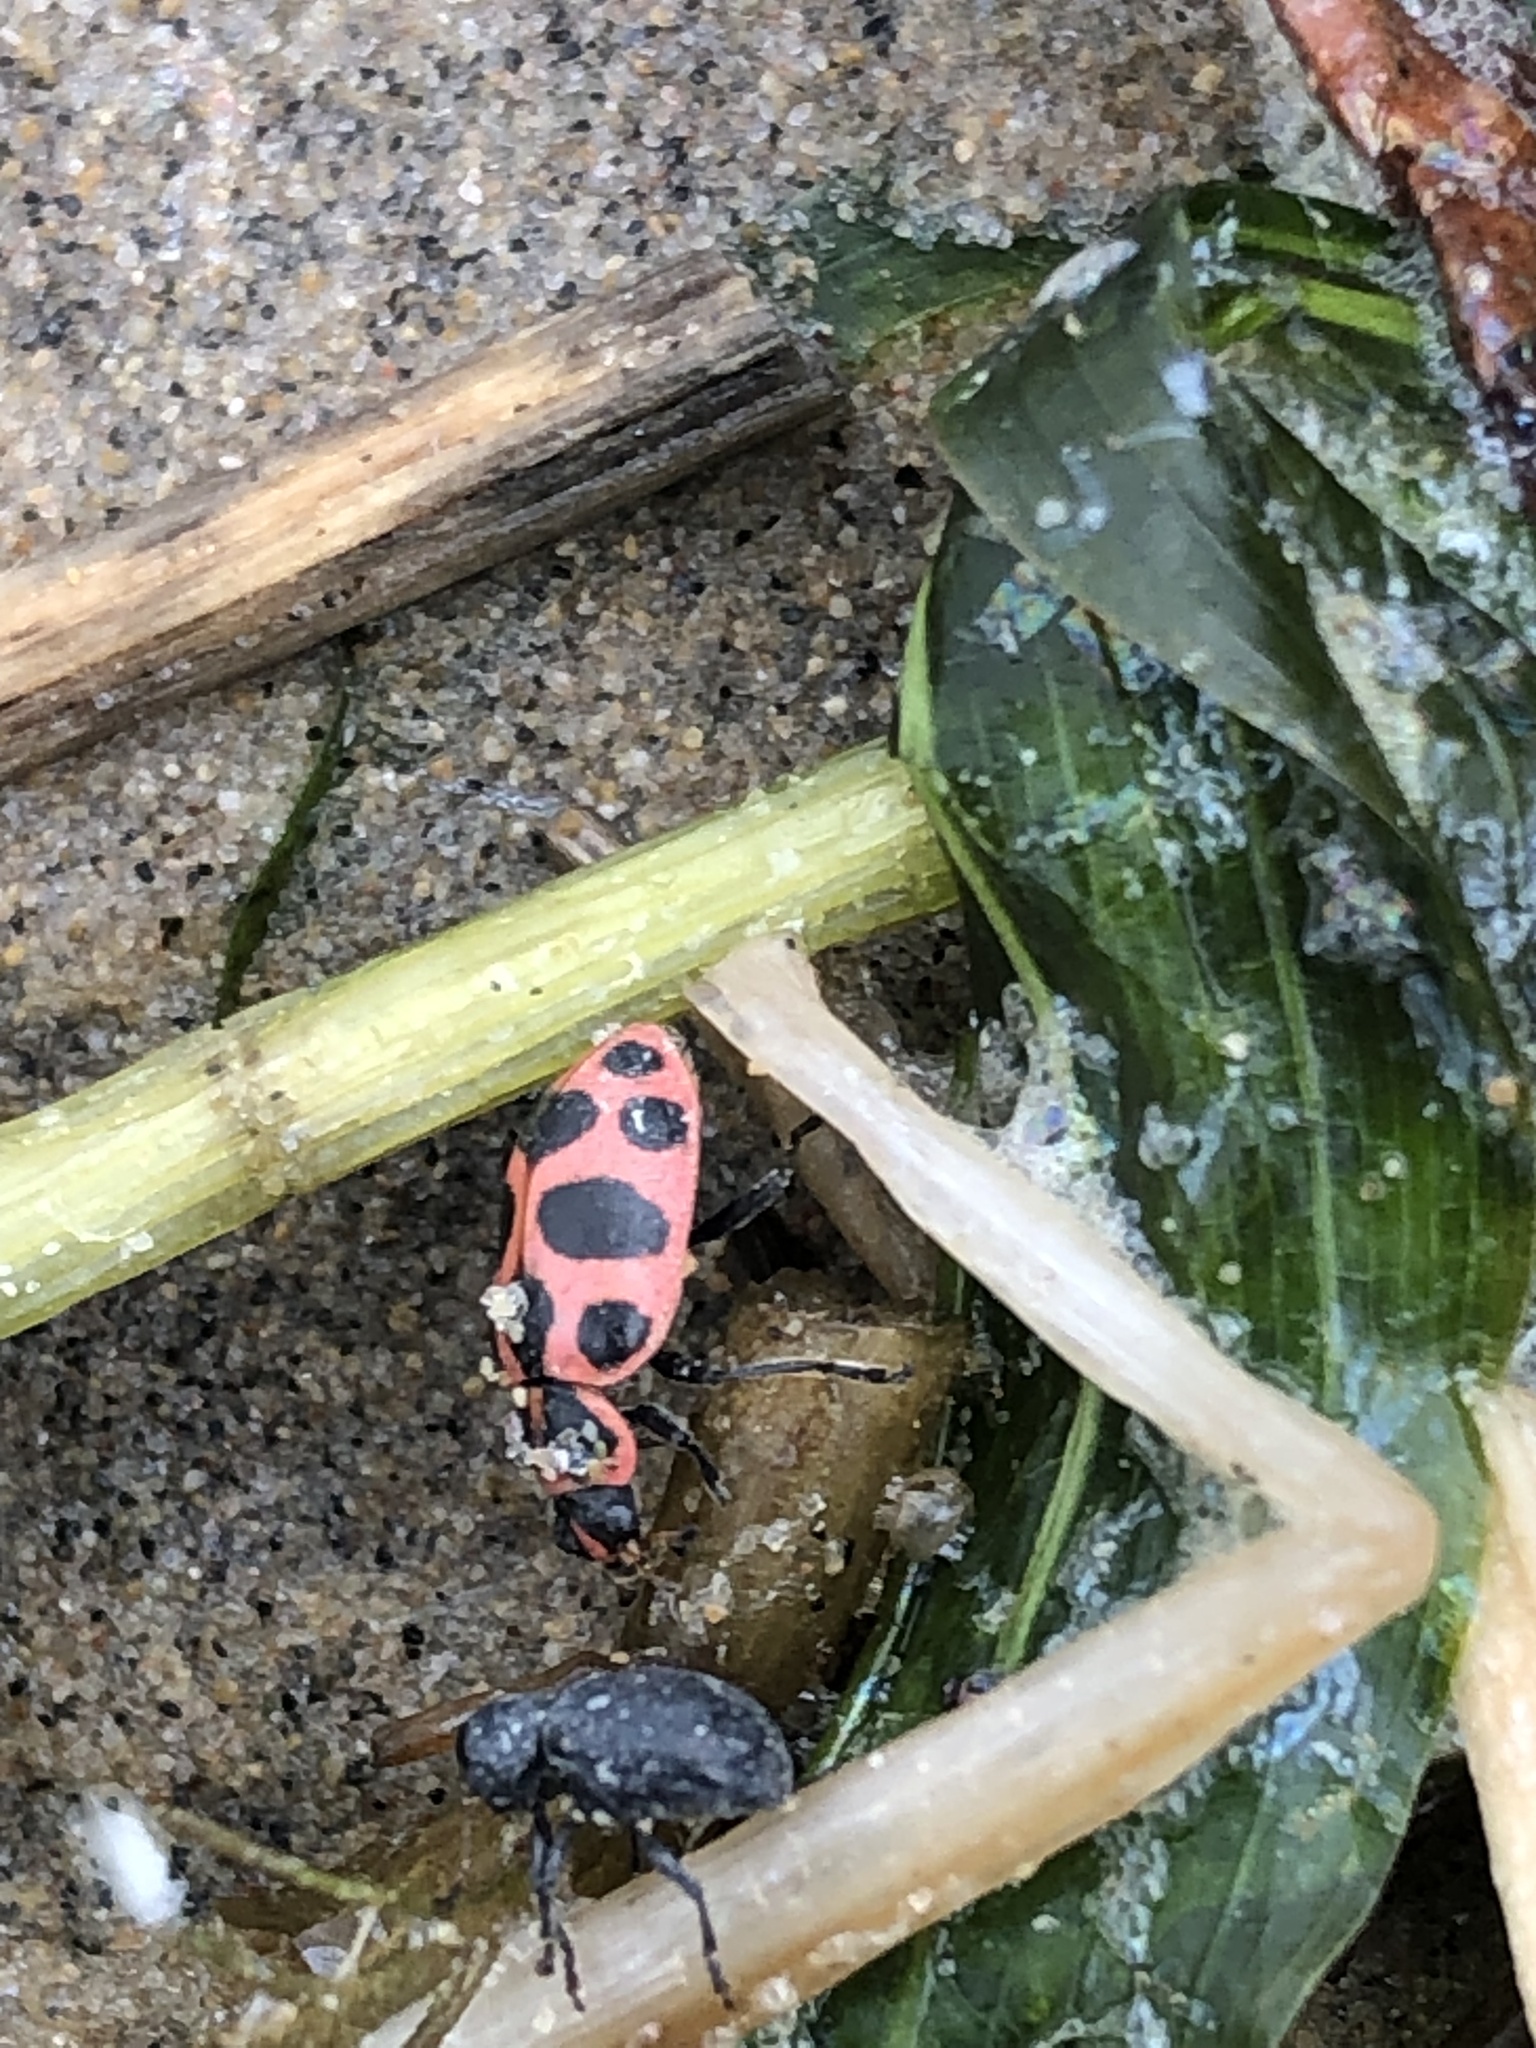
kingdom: Animalia
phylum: Arthropoda
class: Insecta
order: Coleoptera
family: Coccinellidae
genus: Coleomegilla
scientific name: Coleomegilla maculata
